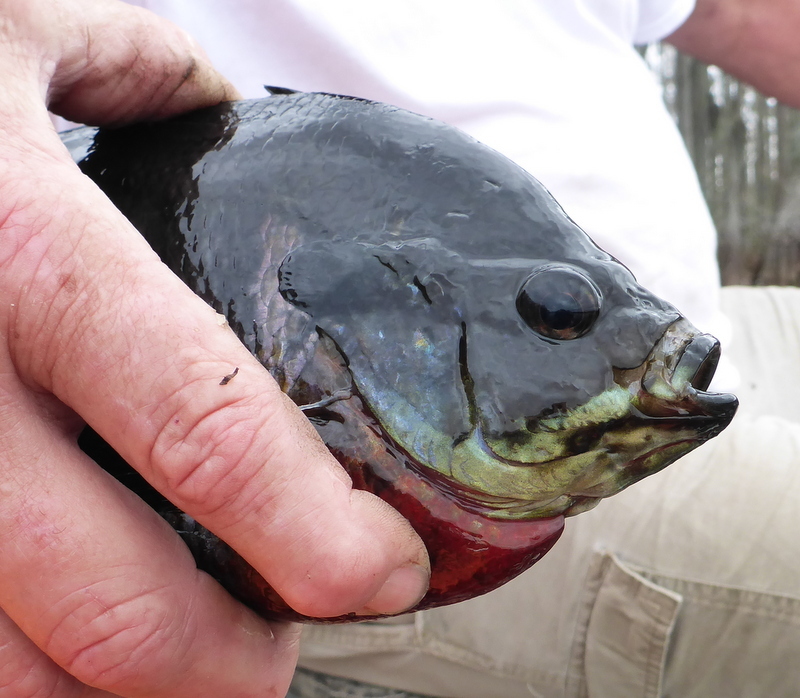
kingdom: Animalia
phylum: Chordata
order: Perciformes
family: Centrarchidae
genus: Lepomis
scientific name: Lepomis macrochirus
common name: Bluegill
